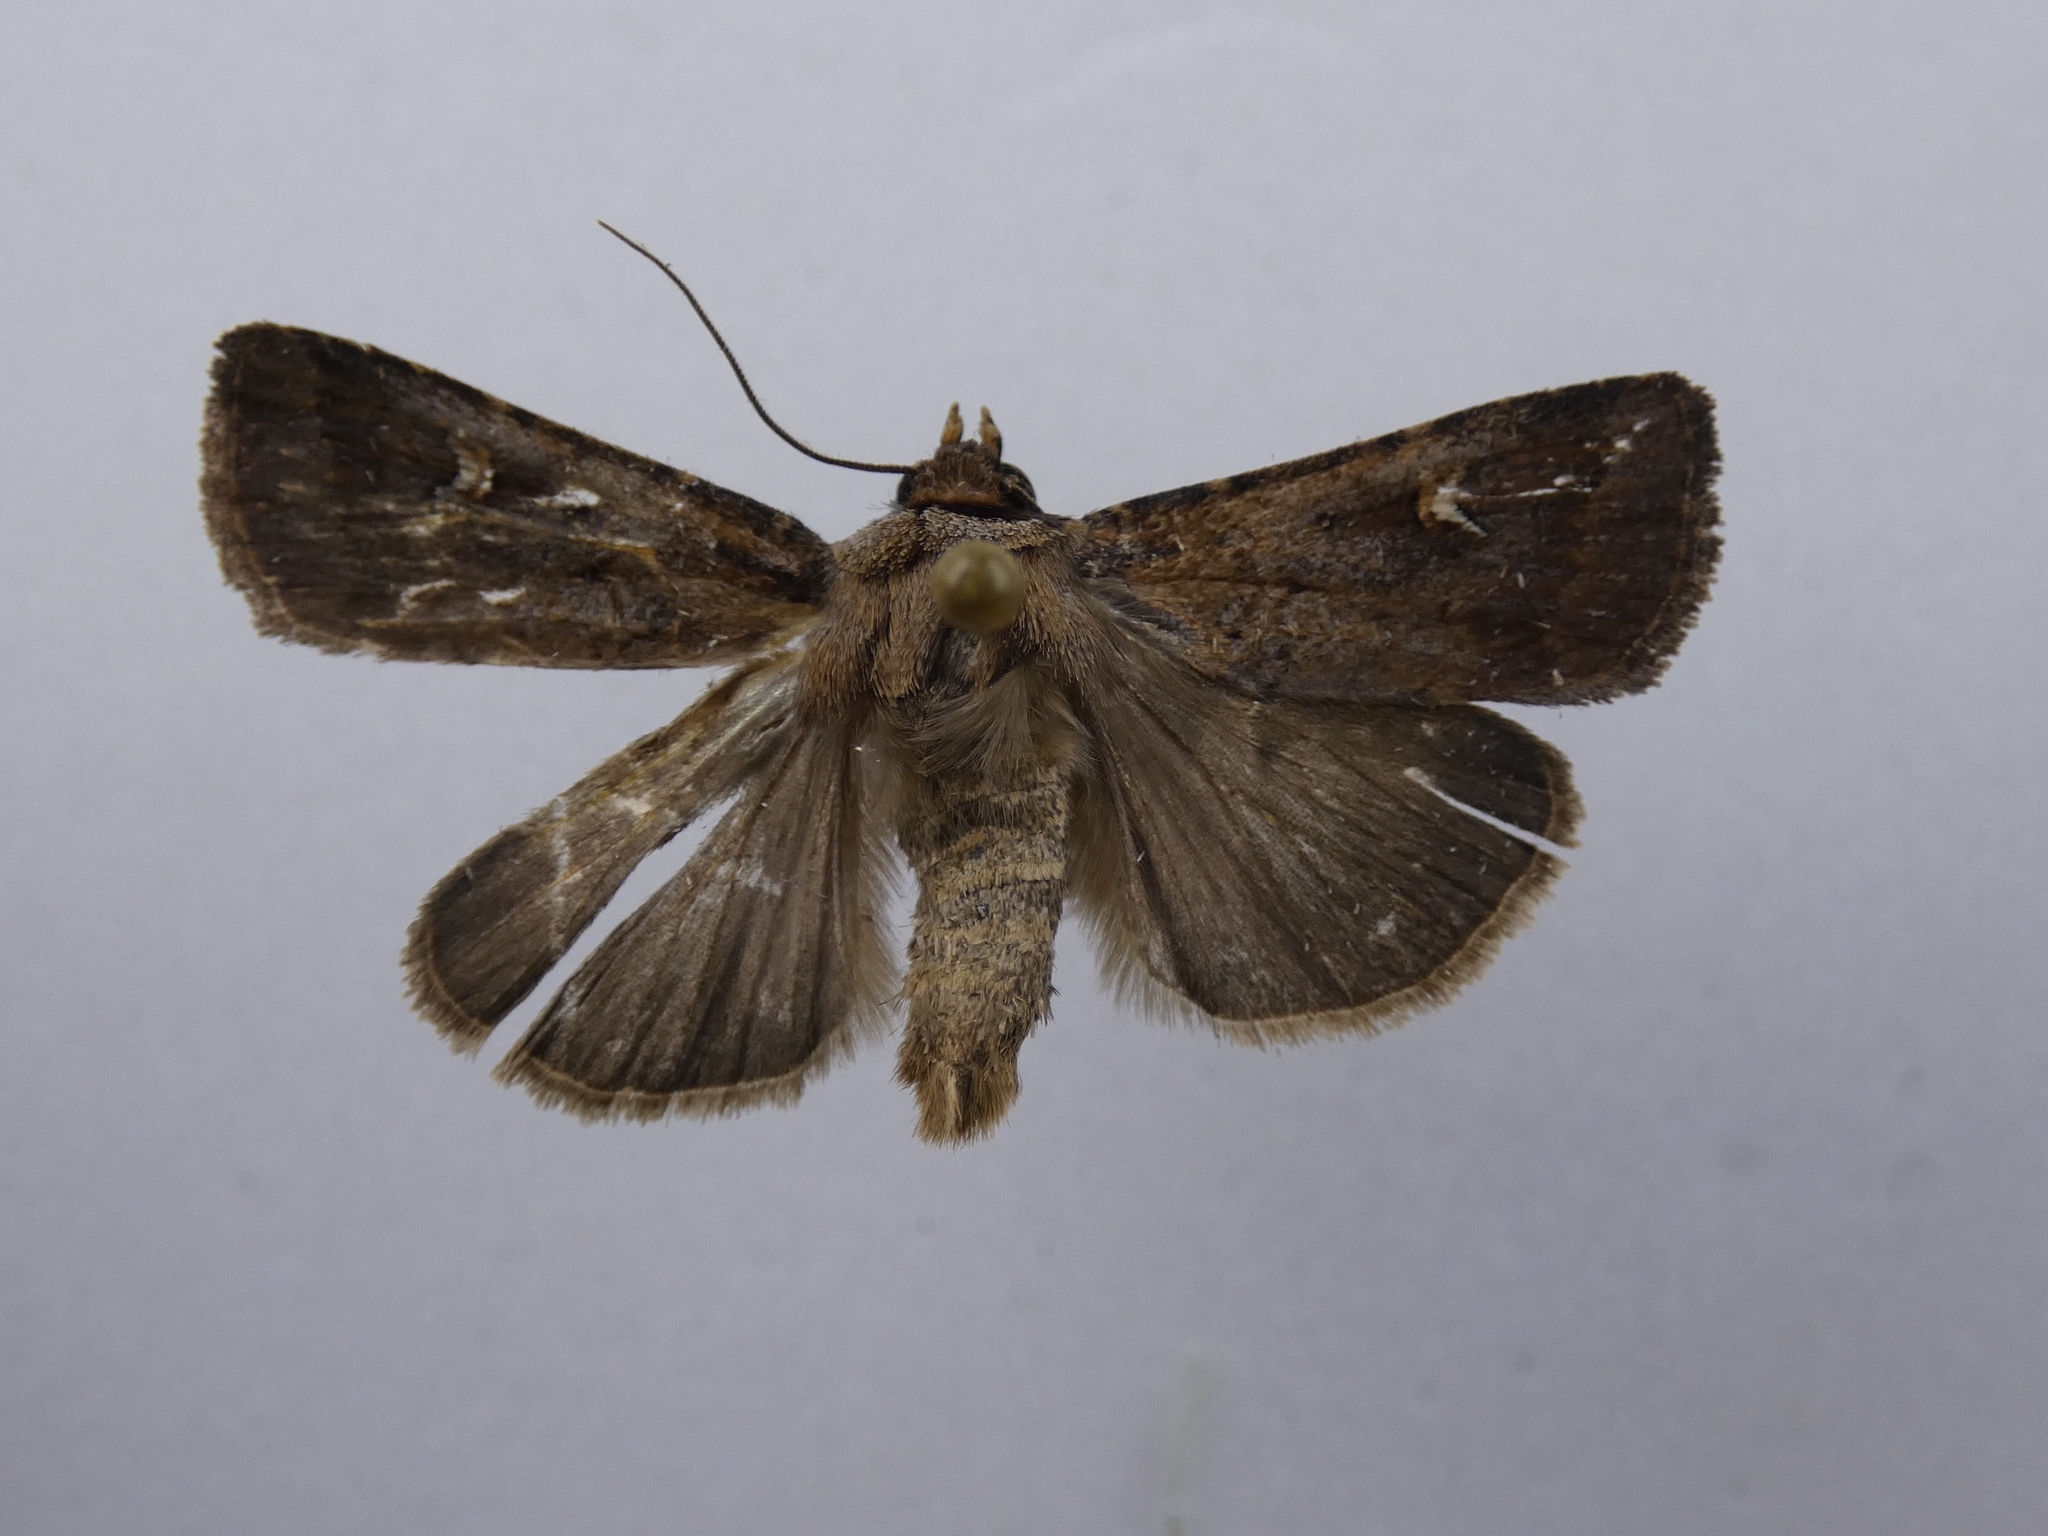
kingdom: Animalia
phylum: Arthropoda
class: Insecta
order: Lepidoptera
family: Noctuidae
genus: Proteuxoa
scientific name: Proteuxoa tetronycha
